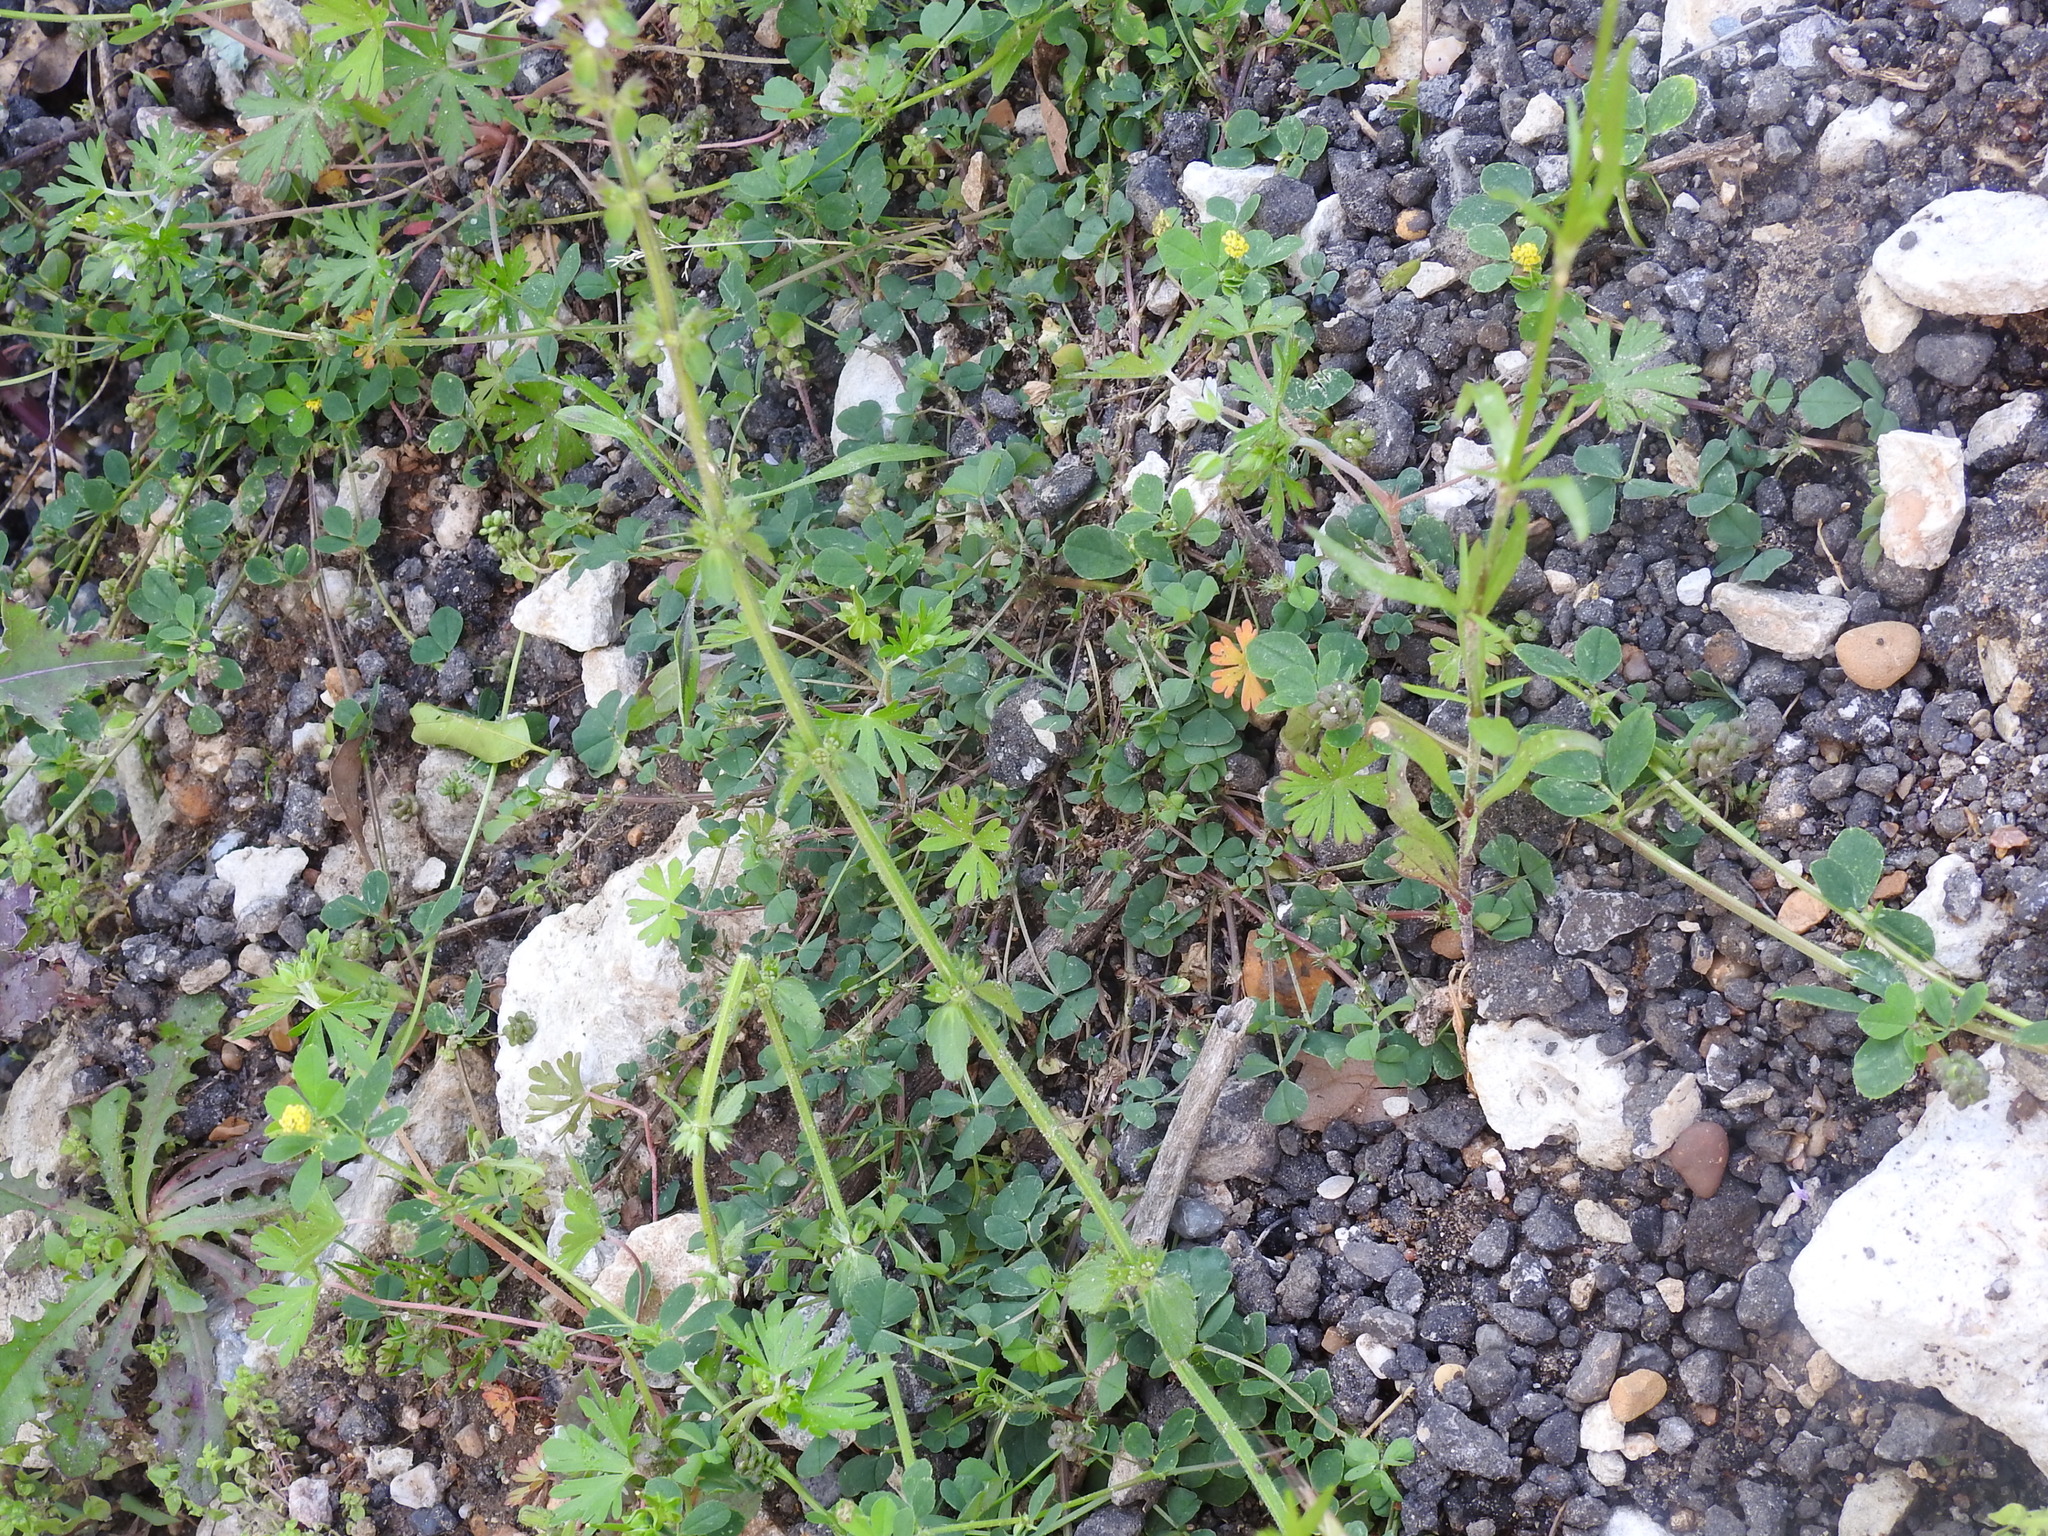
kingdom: Plantae
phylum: Tracheophyta
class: Magnoliopsida
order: Lamiales
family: Lamiaceae
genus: Stachys
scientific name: Stachys
